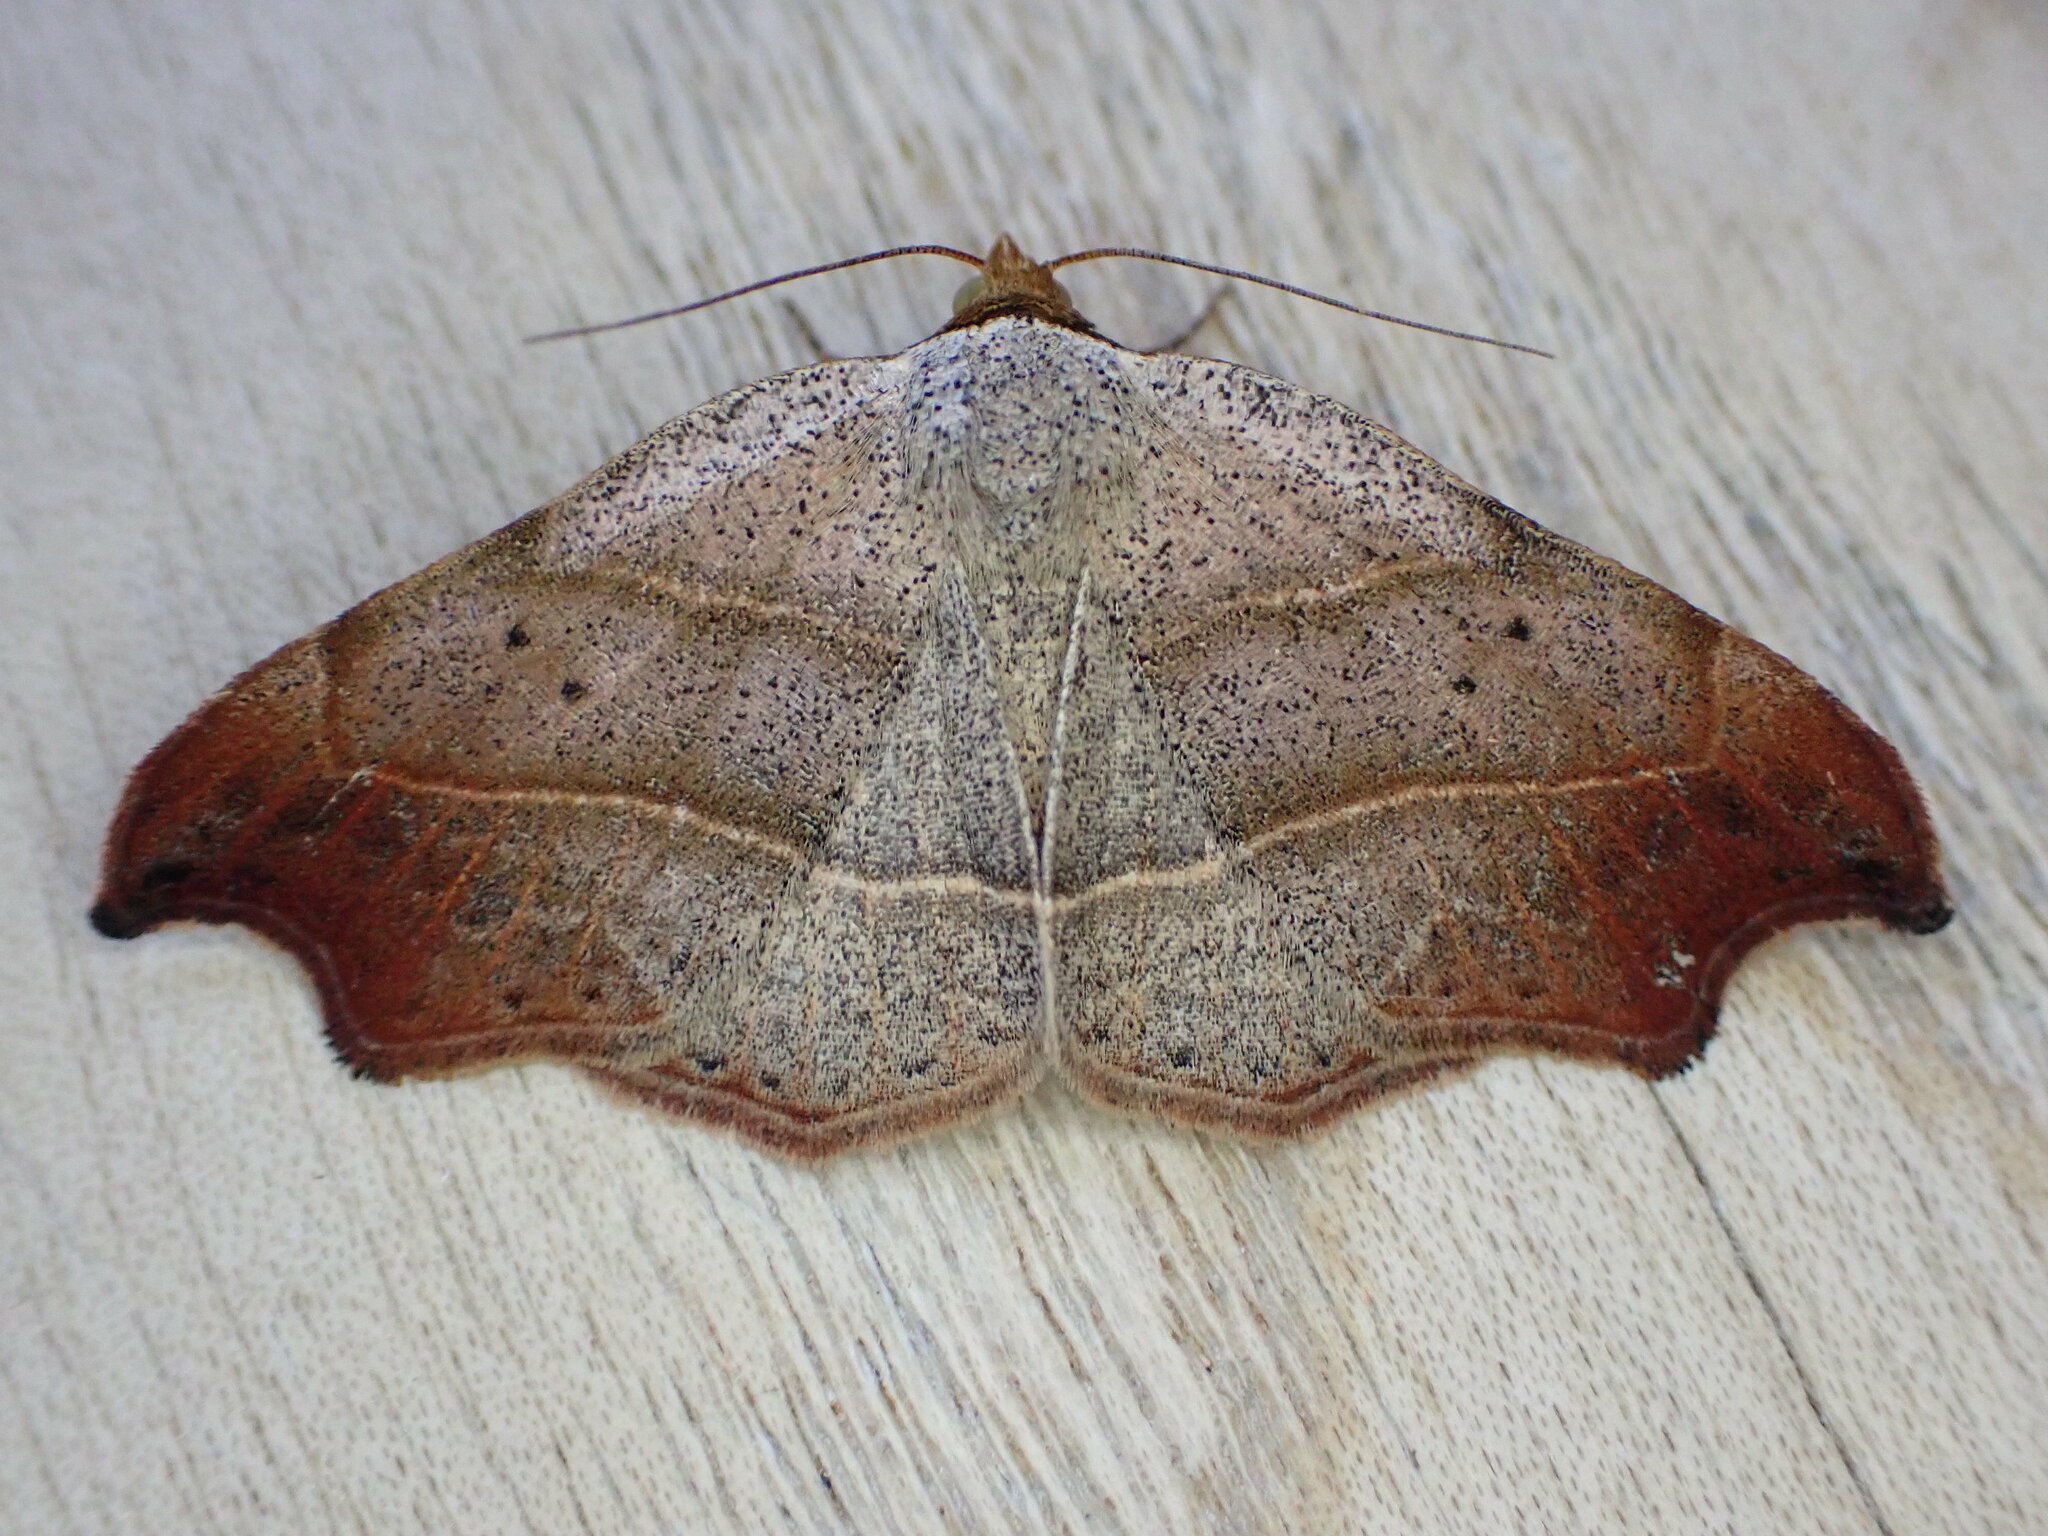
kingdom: Animalia
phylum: Arthropoda
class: Insecta
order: Lepidoptera
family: Erebidae
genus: Laspeyria
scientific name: Laspeyria flexula
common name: Beautiful hook-tip
